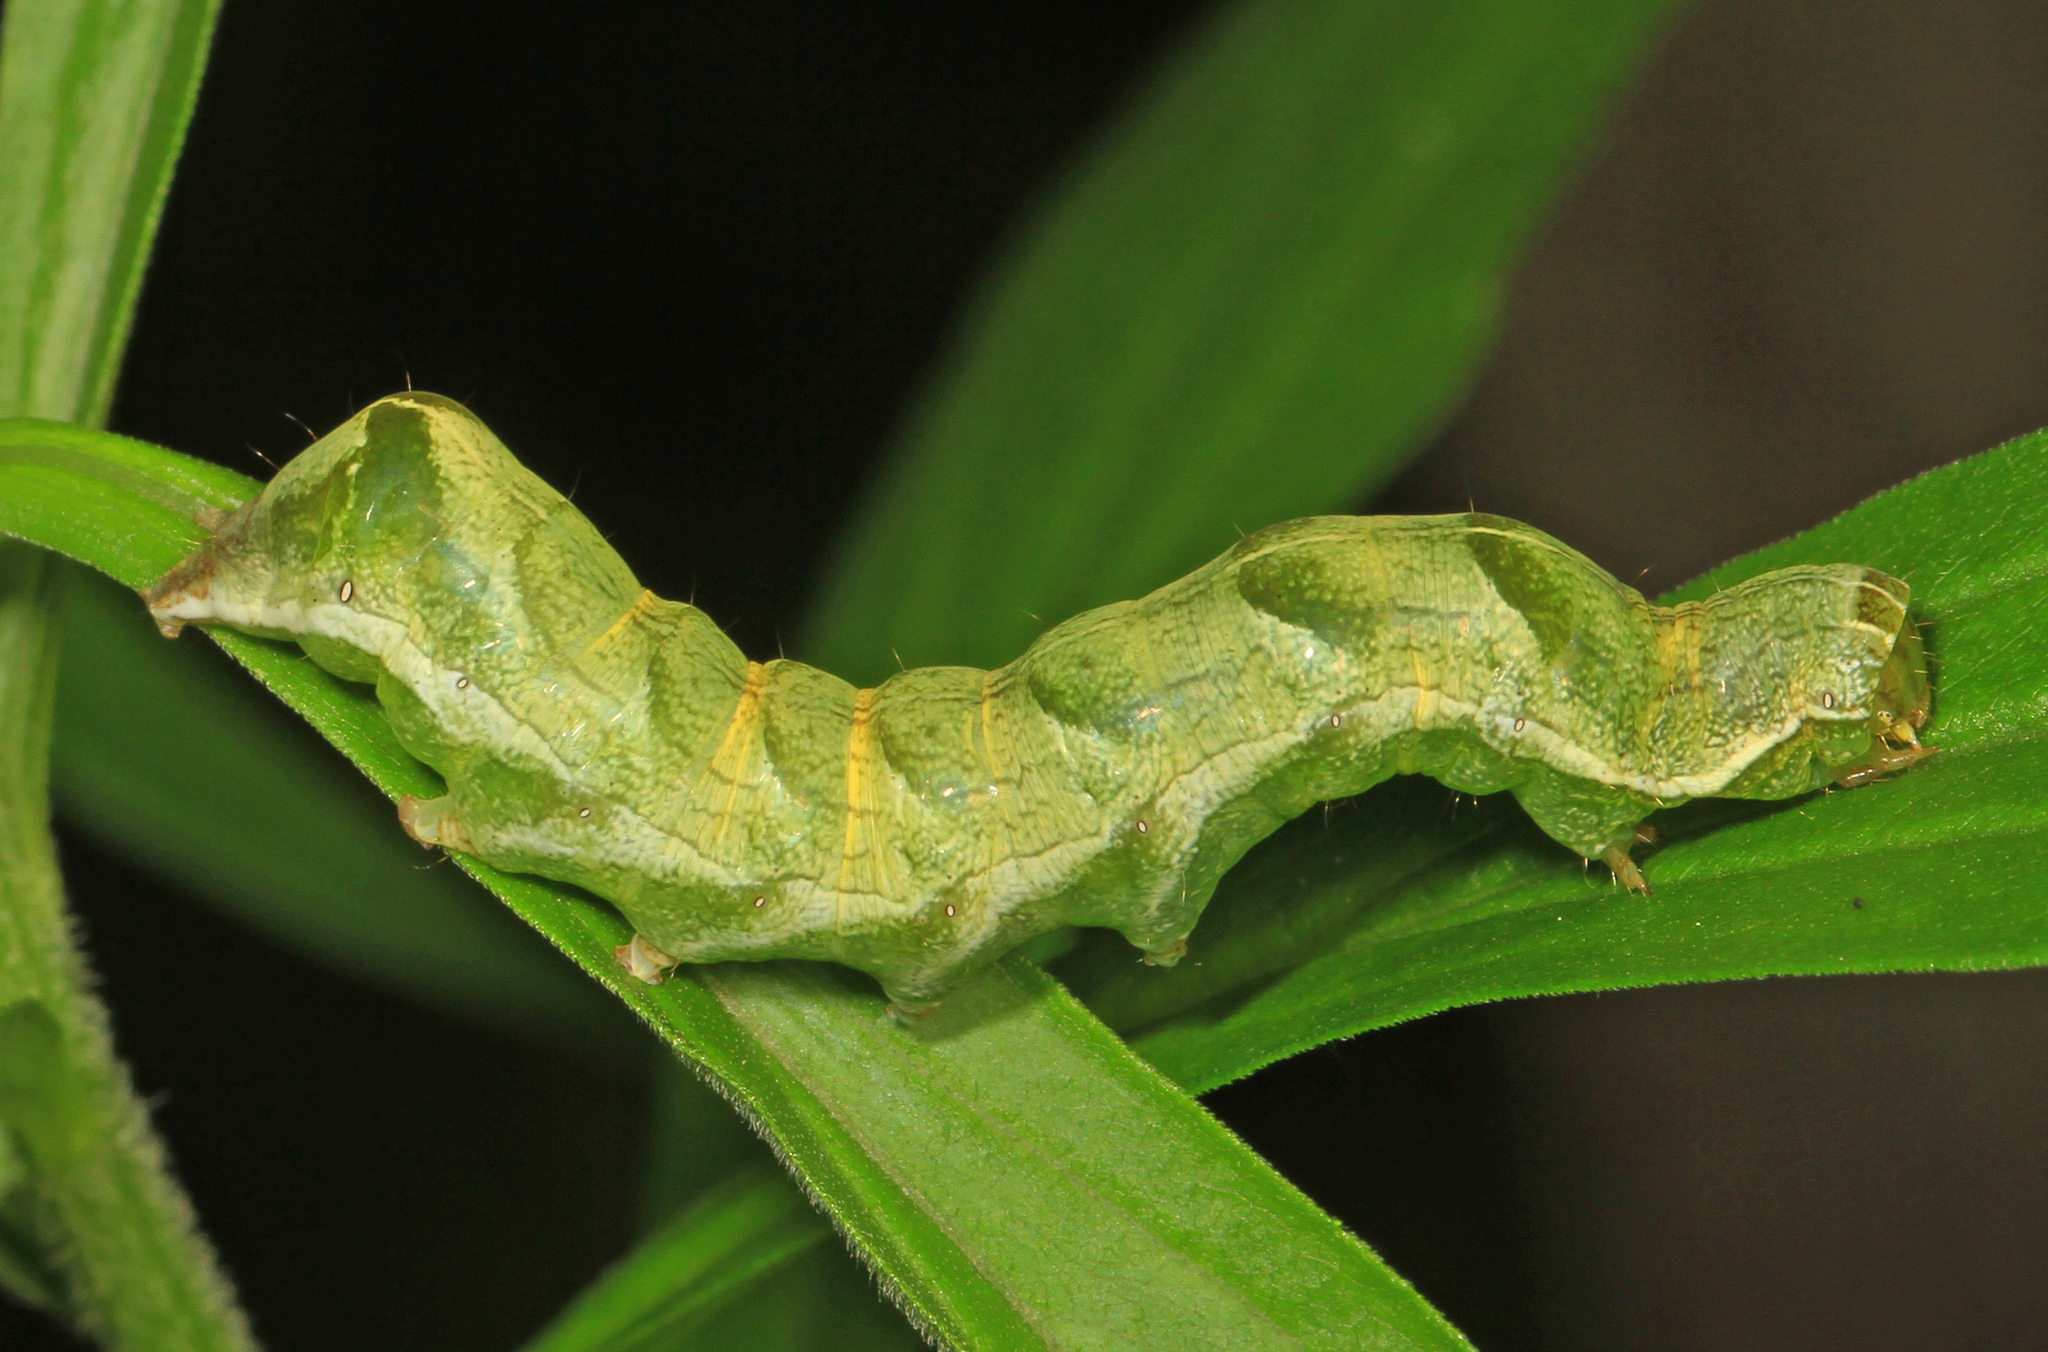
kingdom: Animalia
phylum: Arthropoda
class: Insecta
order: Lepidoptera
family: Noctuidae
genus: Melanchra
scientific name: Melanchra adjuncta
